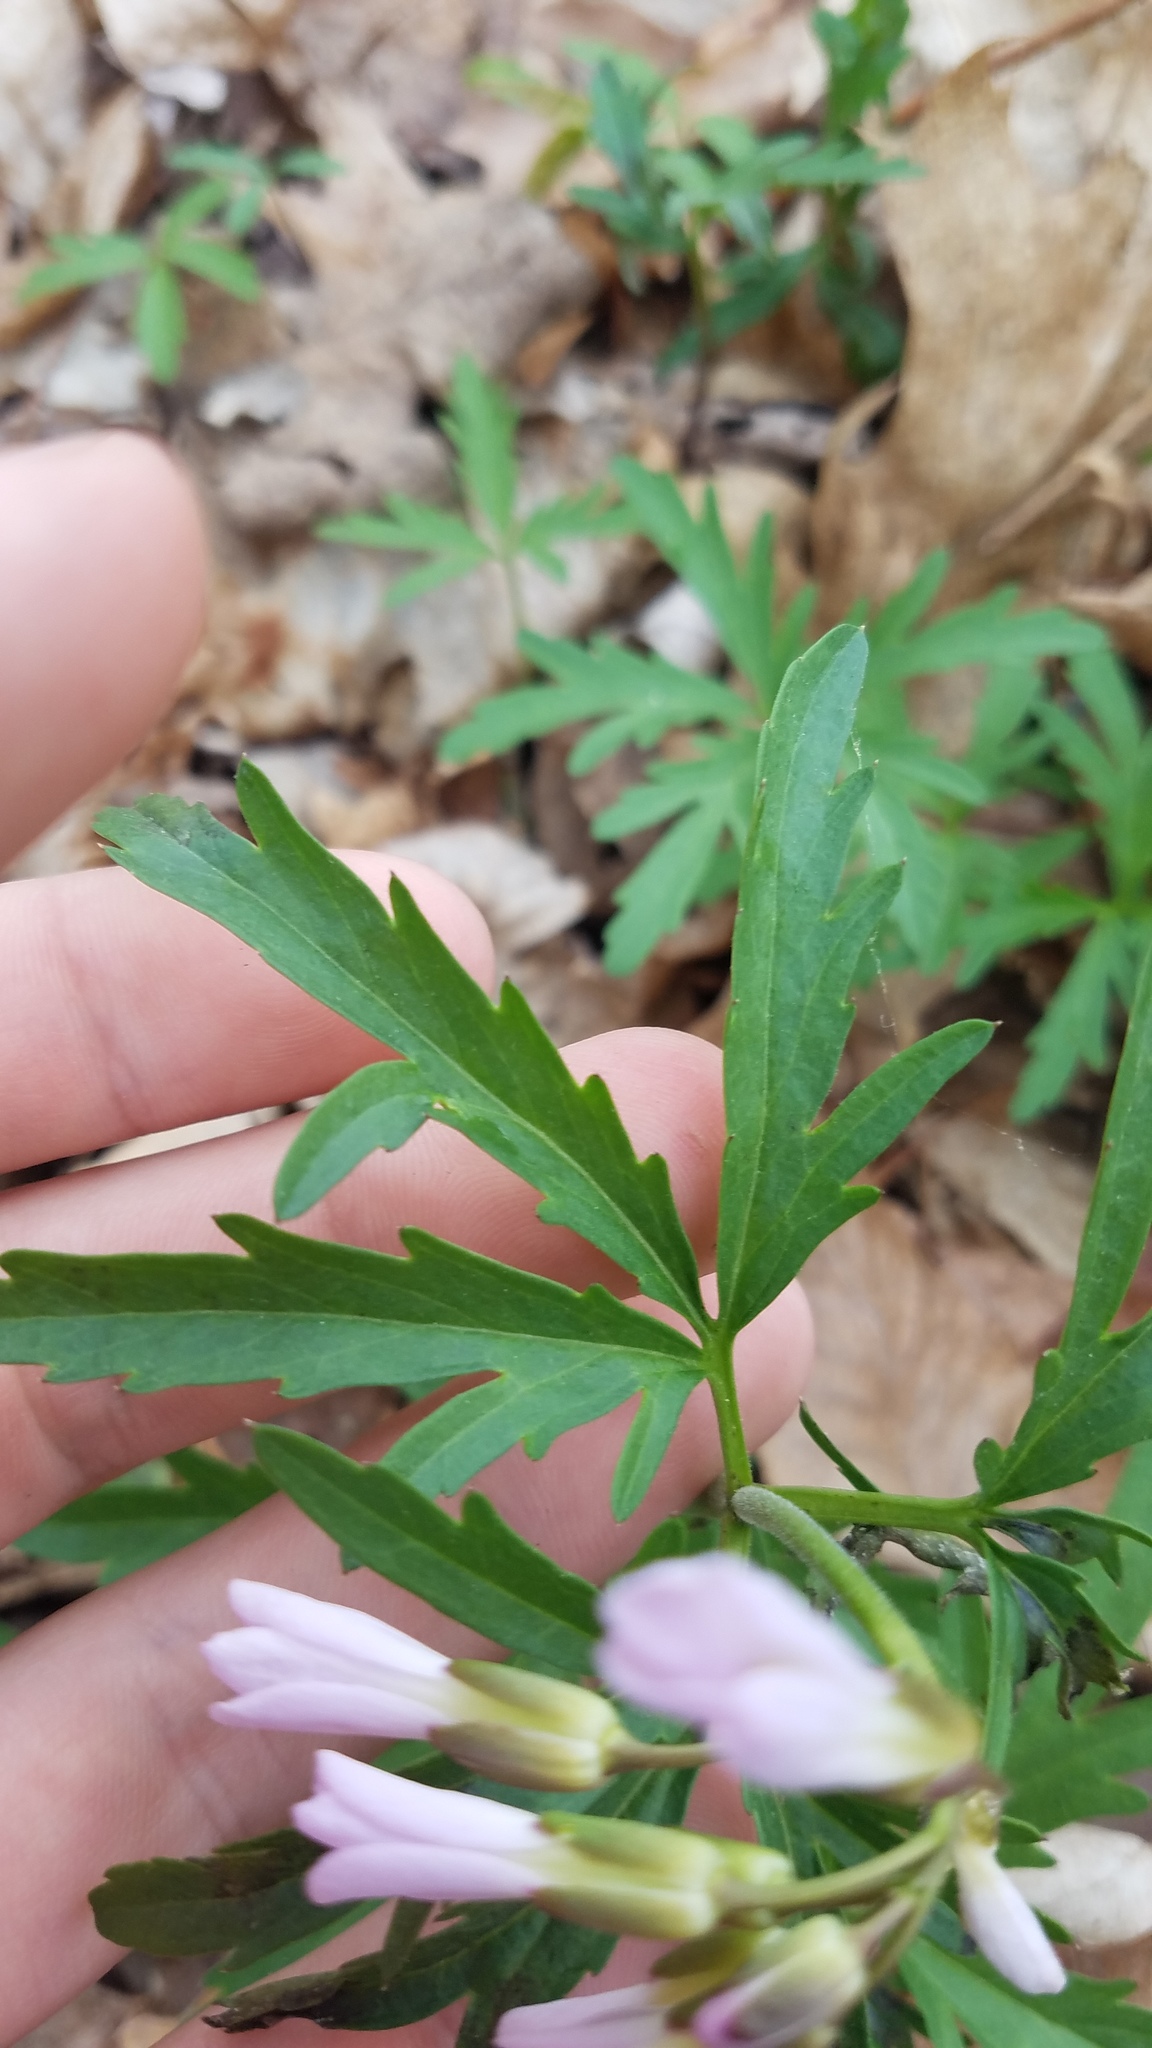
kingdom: Plantae
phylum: Tracheophyta
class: Magnoliopsida
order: Brassicales
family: Brassicaceae
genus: Cardamine
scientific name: Cardamine concatenata
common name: Cut-leaf toothcup
